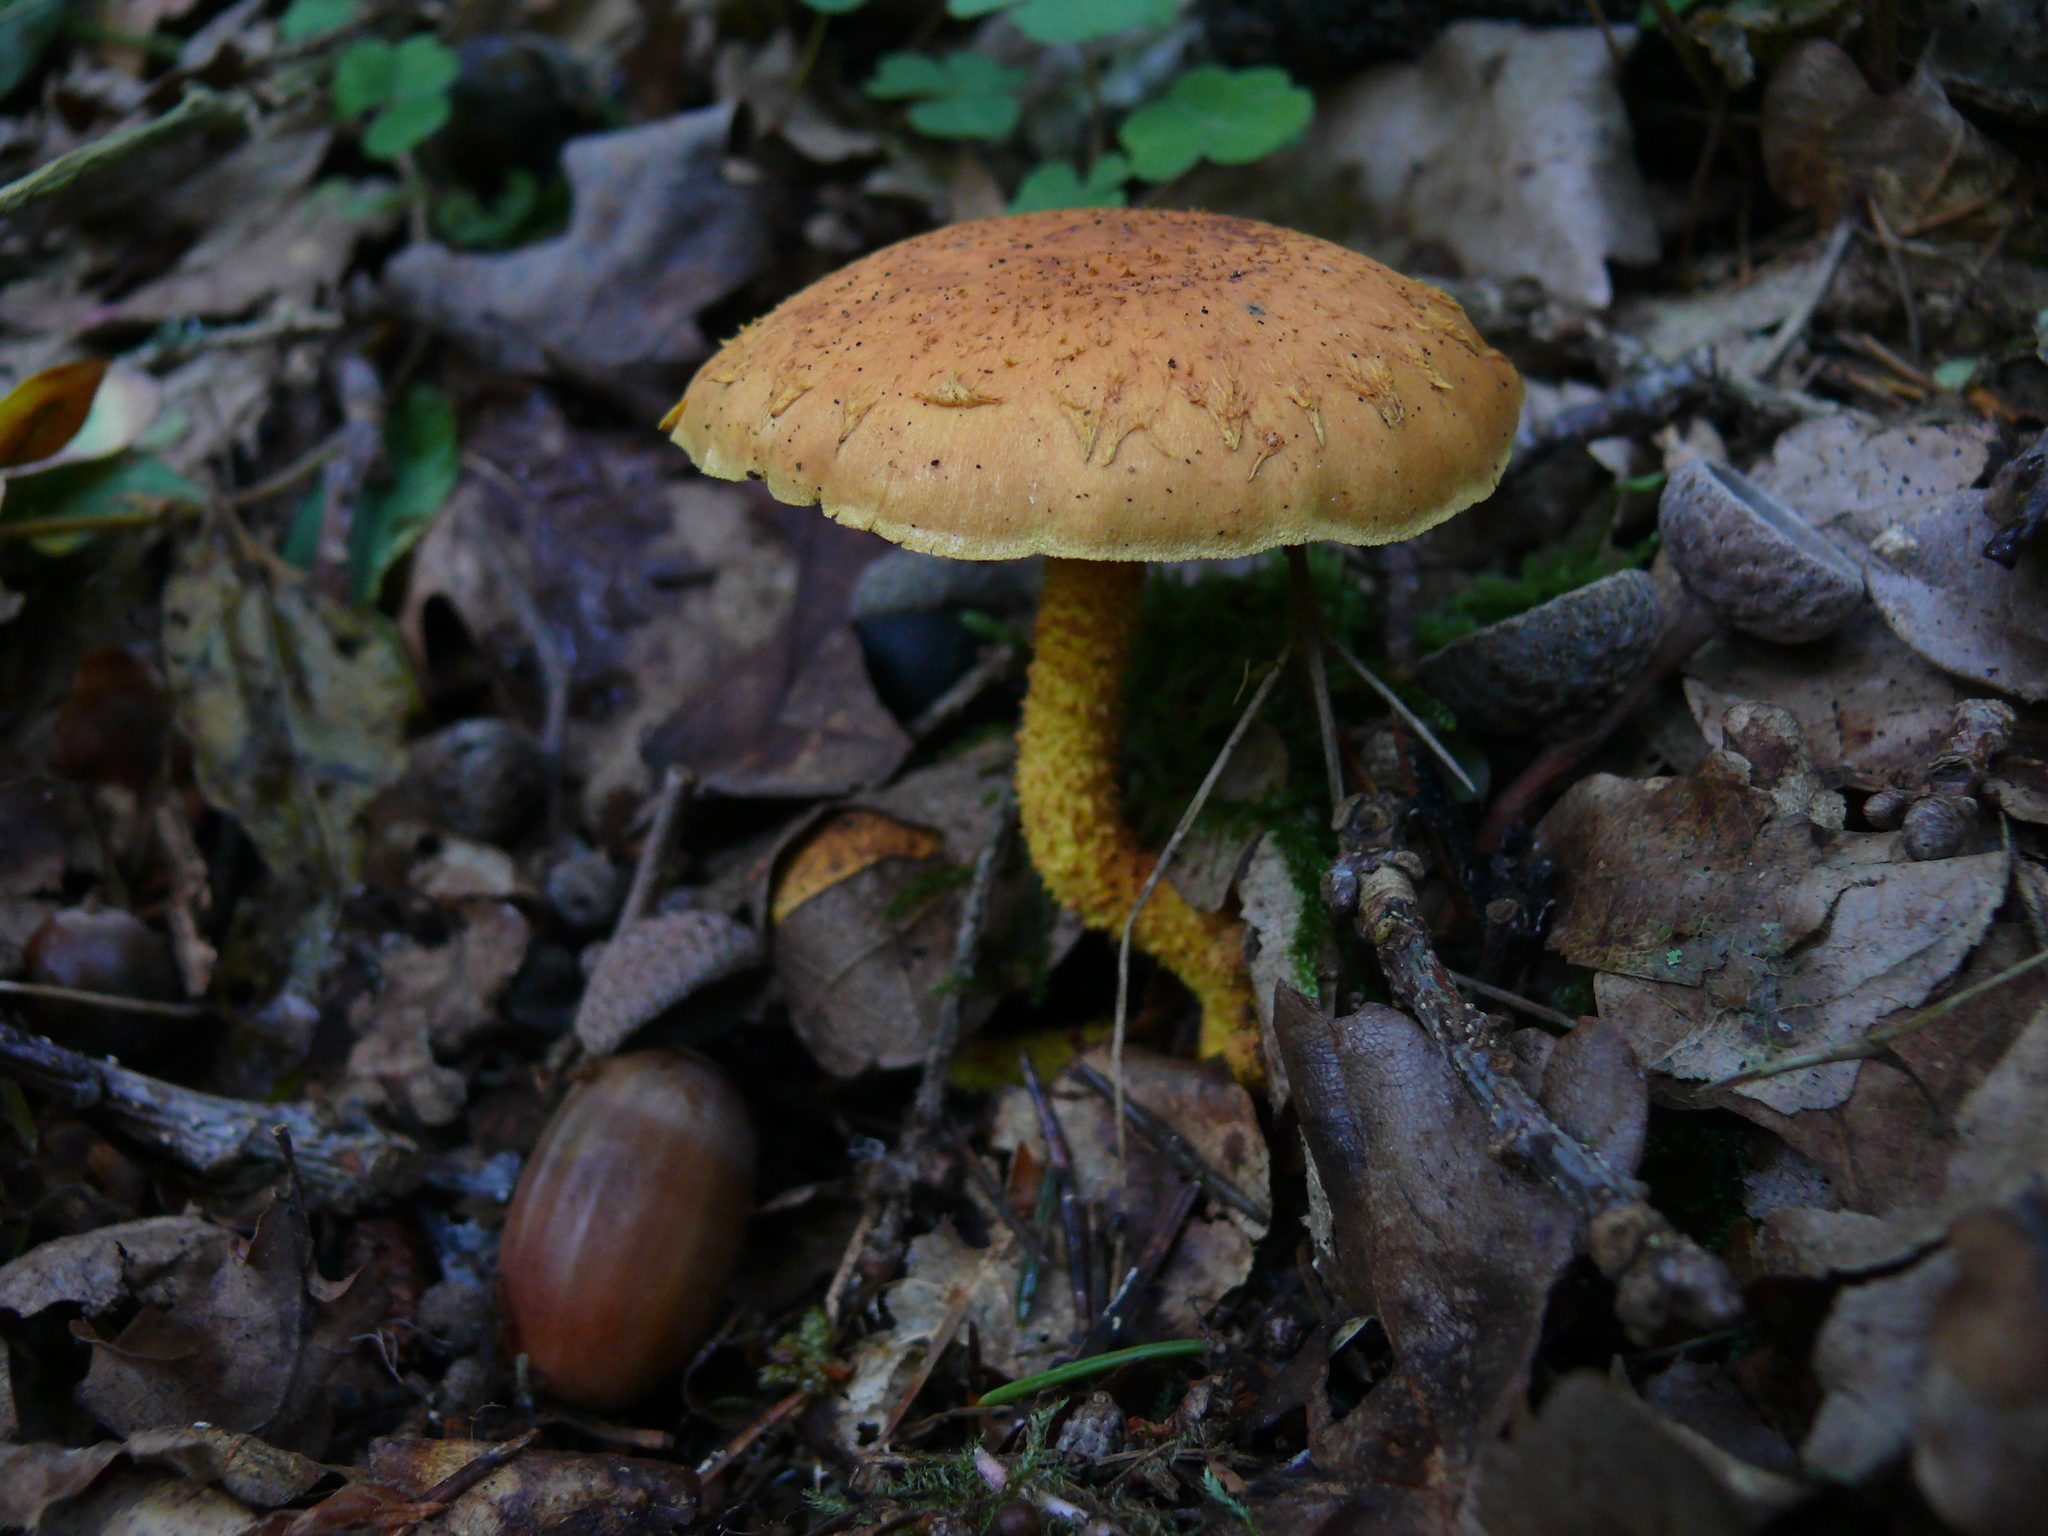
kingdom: Fungi
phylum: Basidiomycota
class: Agaricomycetes
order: Agaricales
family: Strophariaceae
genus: Pholiota
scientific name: Pholiota flammans
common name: Flaming scalycap
